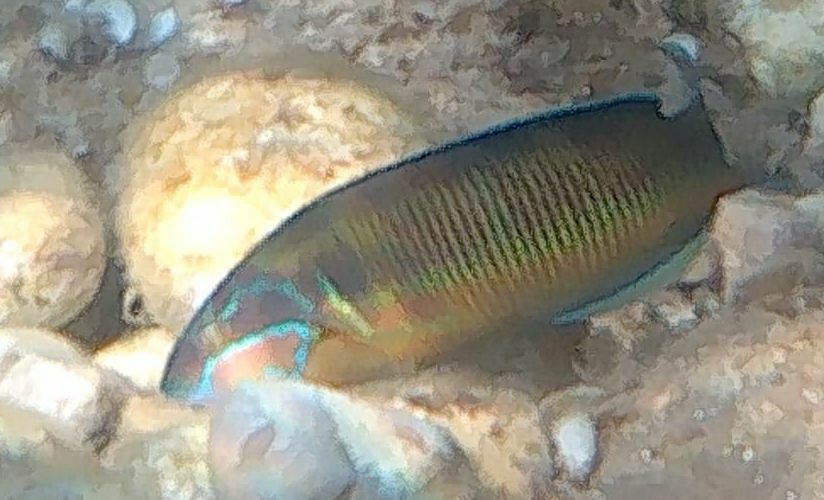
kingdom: Animalia
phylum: Chordata
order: Perciformes
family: Labridae
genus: Thalassoma
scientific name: Thalassoma pavo
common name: Ornate wrasse
